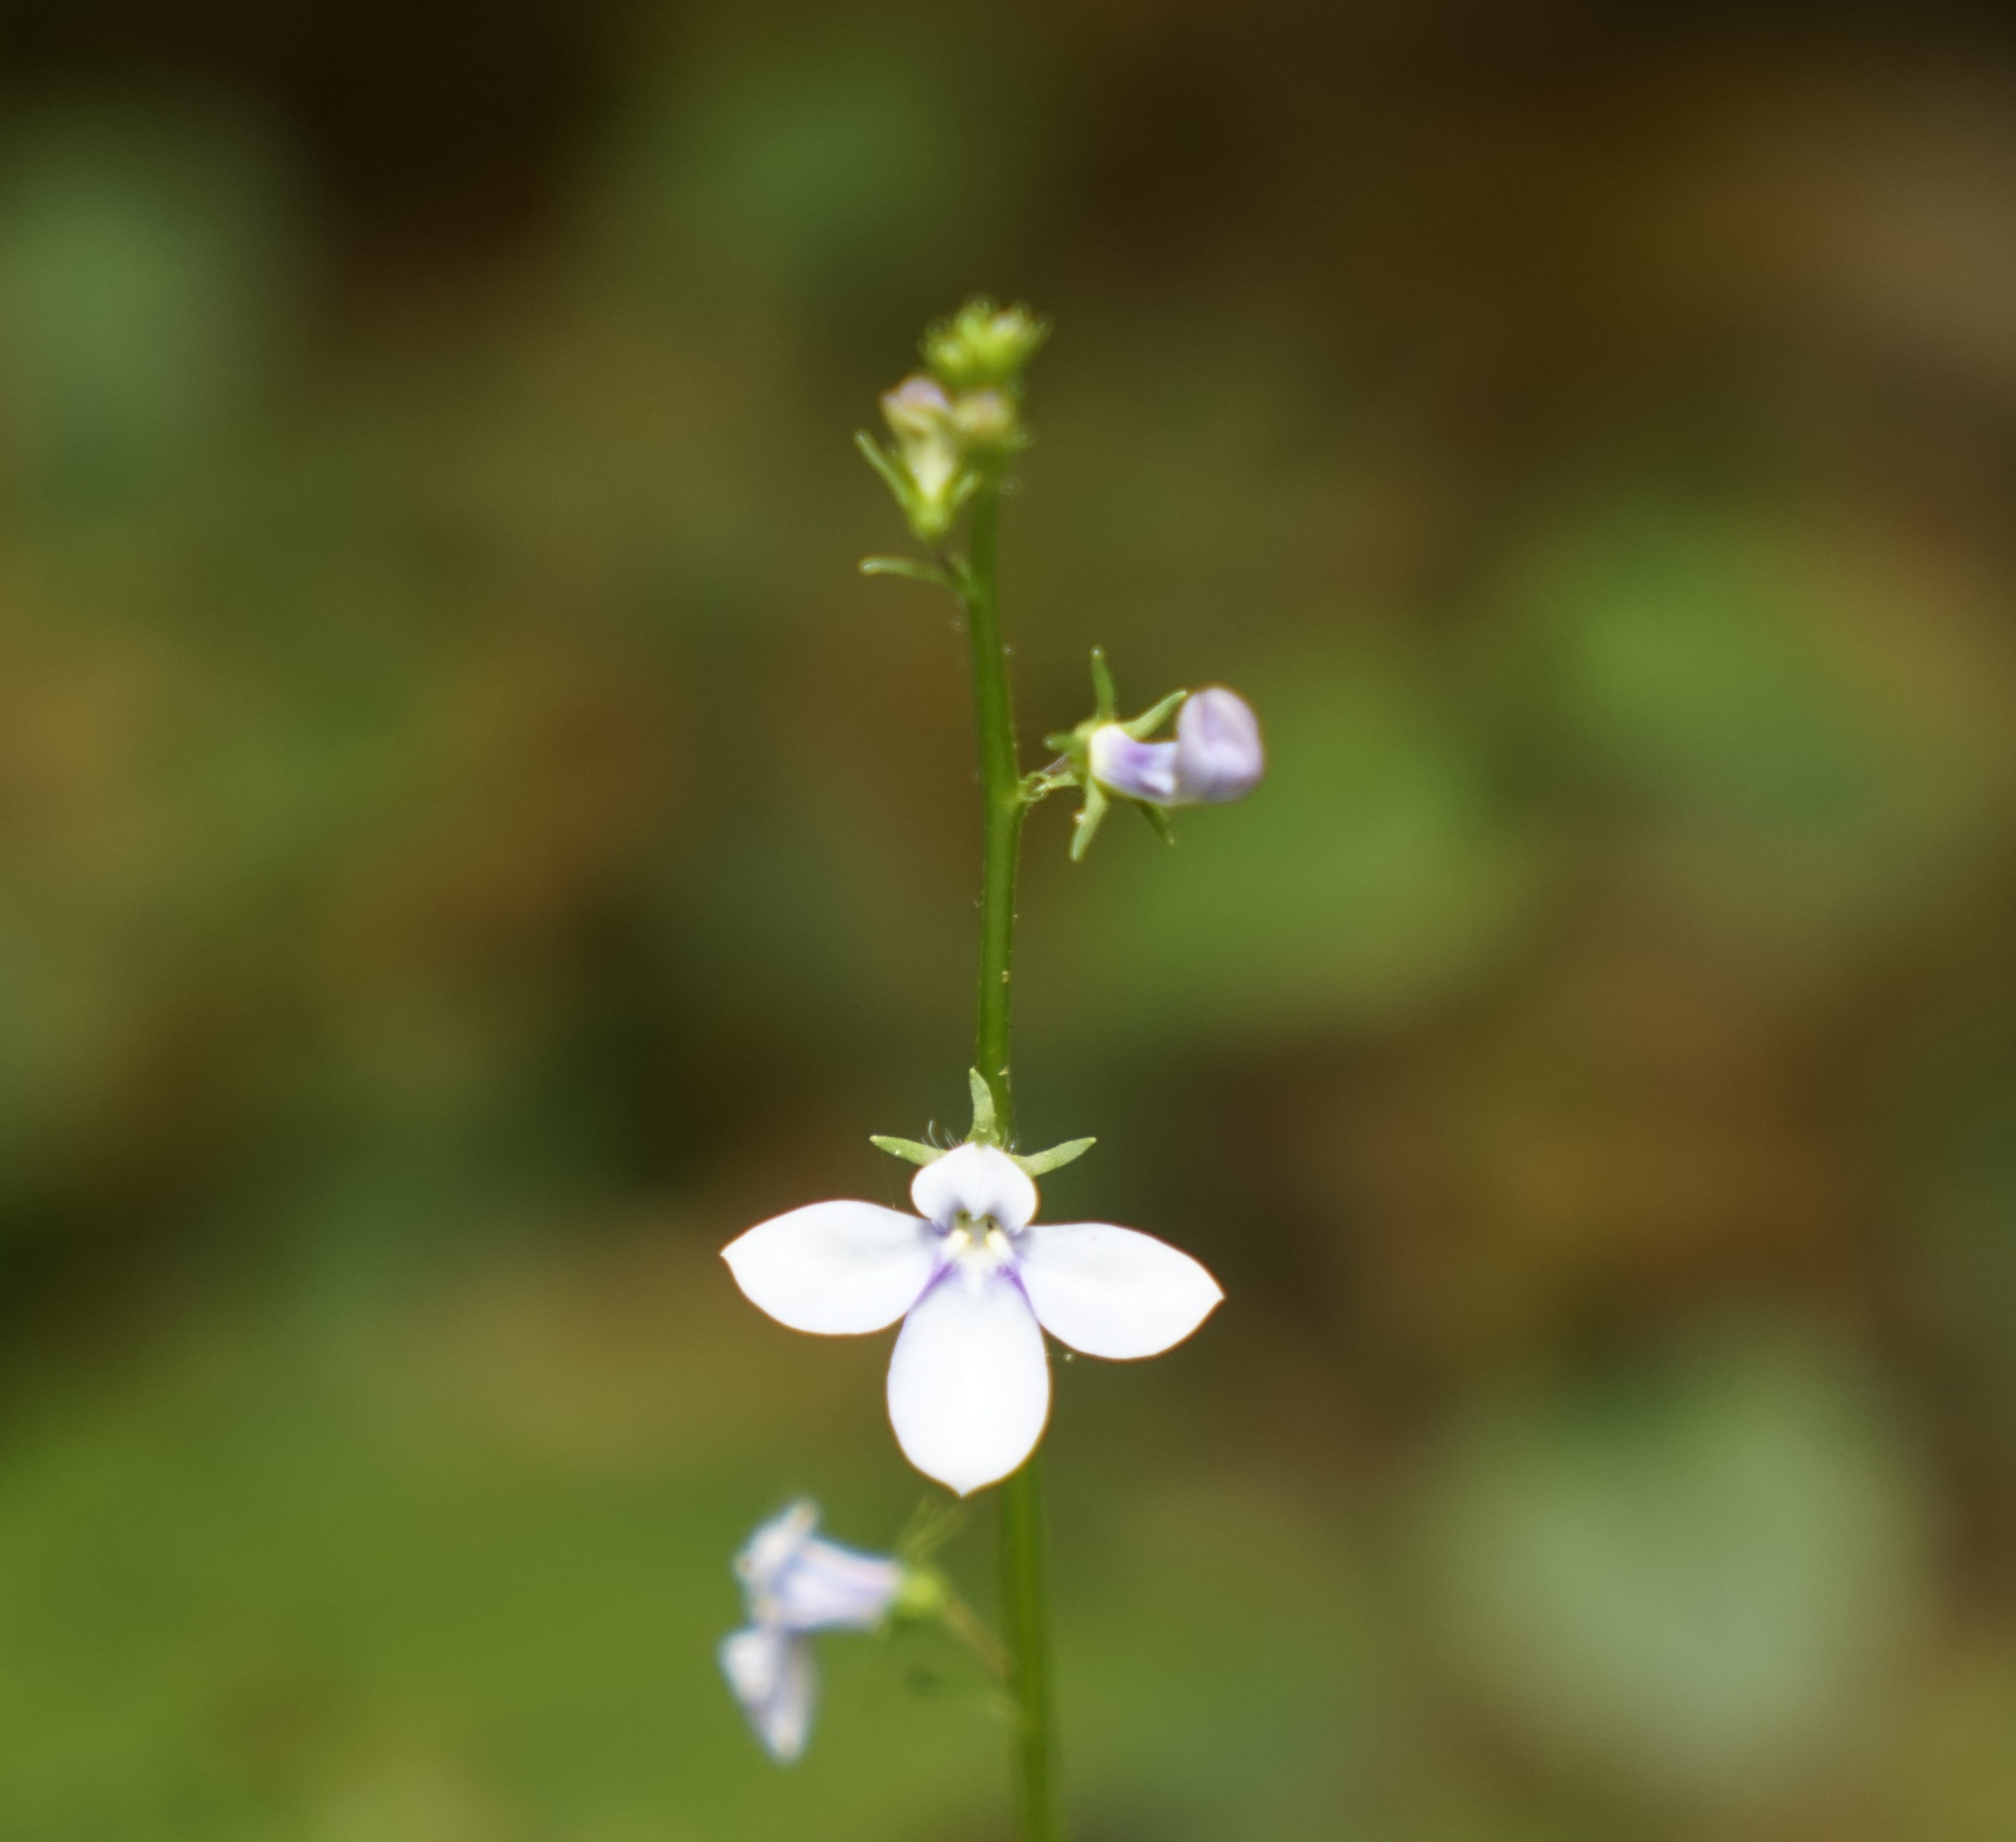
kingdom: Plantae
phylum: Tracheophyta
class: Magnoliopsida
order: Asterales
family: Campanulaceae
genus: Lobelia
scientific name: Lobelia trigonocaulis
